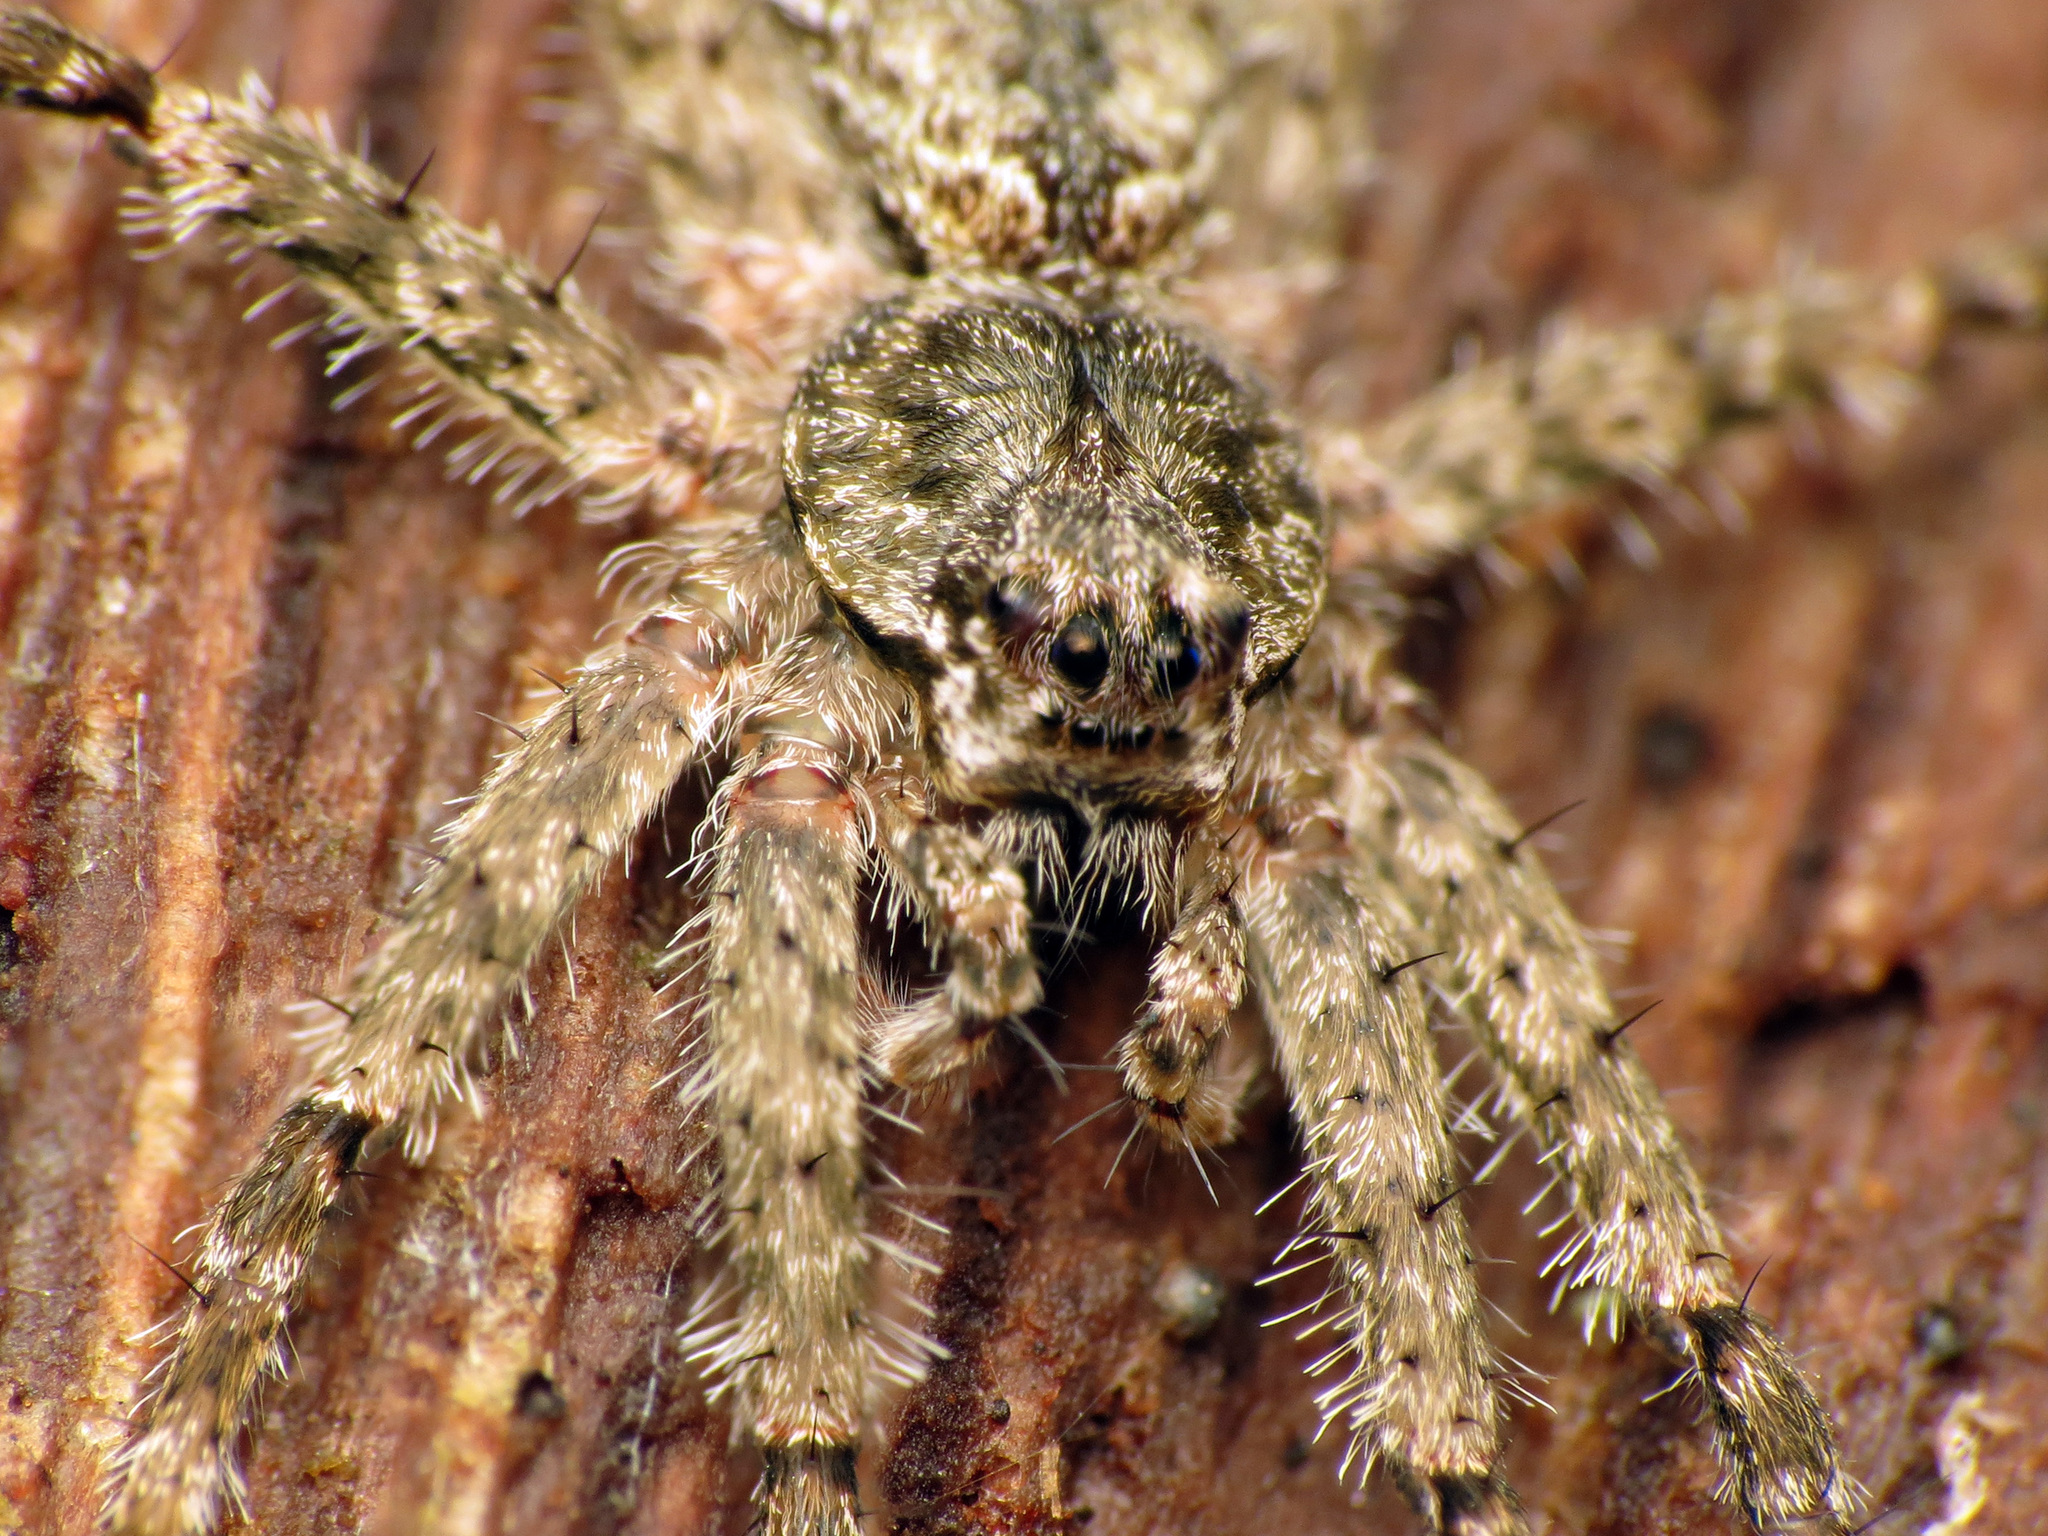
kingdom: Animalia
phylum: Arthropoda
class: Arachnida
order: Araneae
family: Pisauridae
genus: Dolomedes
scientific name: Dolomedes albineus
